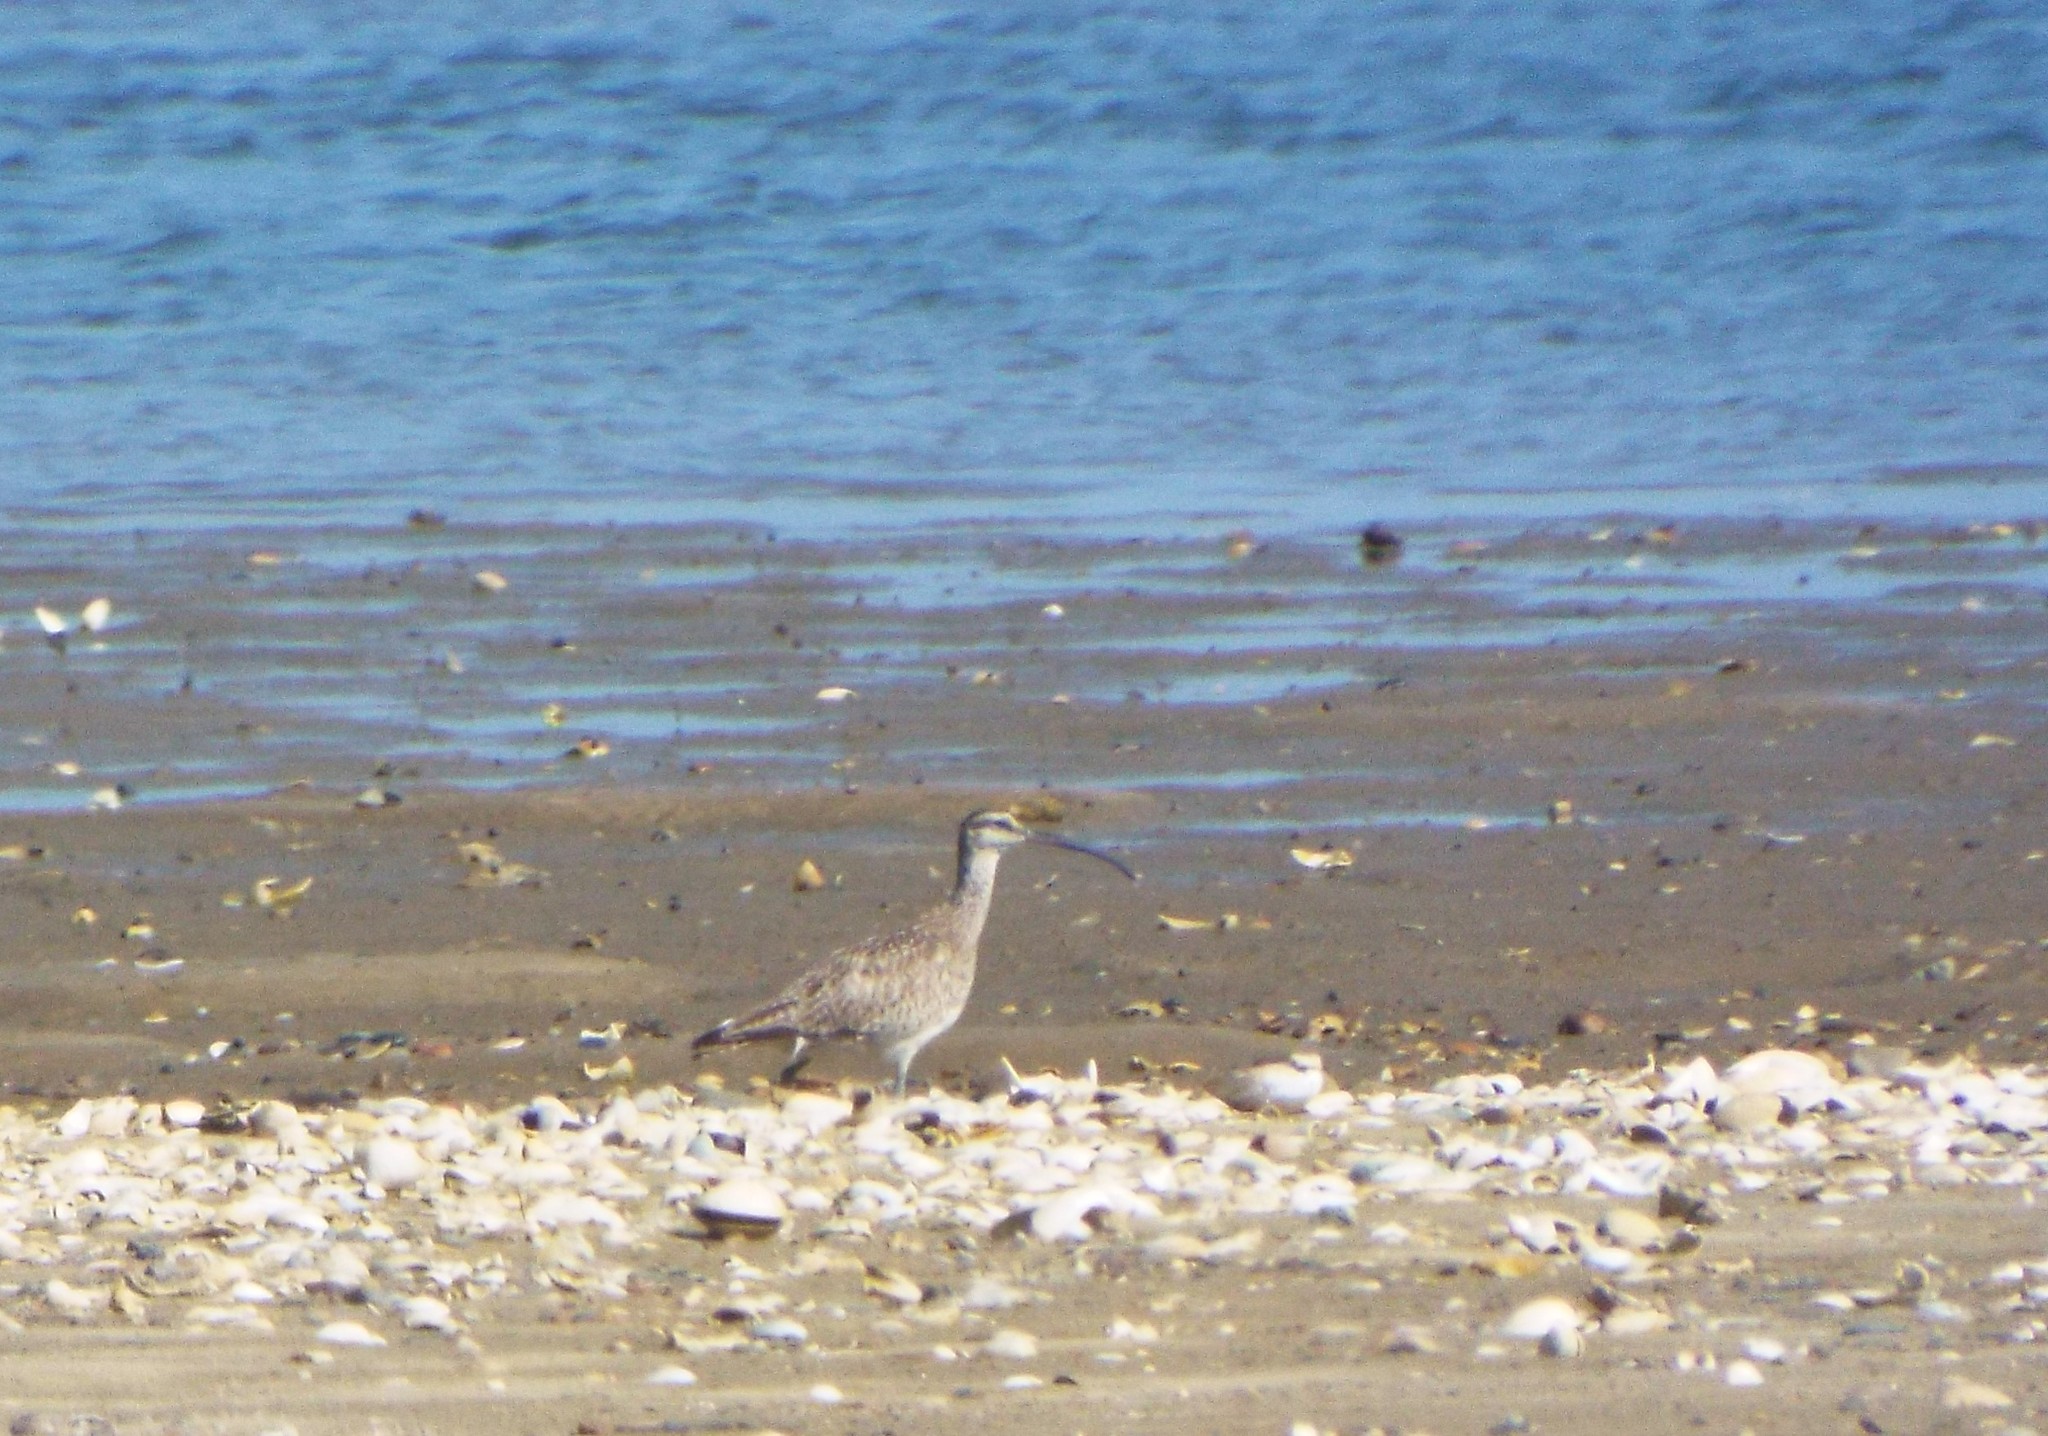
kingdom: Animalia
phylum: Chordata
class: Aves
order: Charadriiformes
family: Scolopacidae
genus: Numenius
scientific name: Numenius hudsonicus
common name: Hudsonian whimbrel
